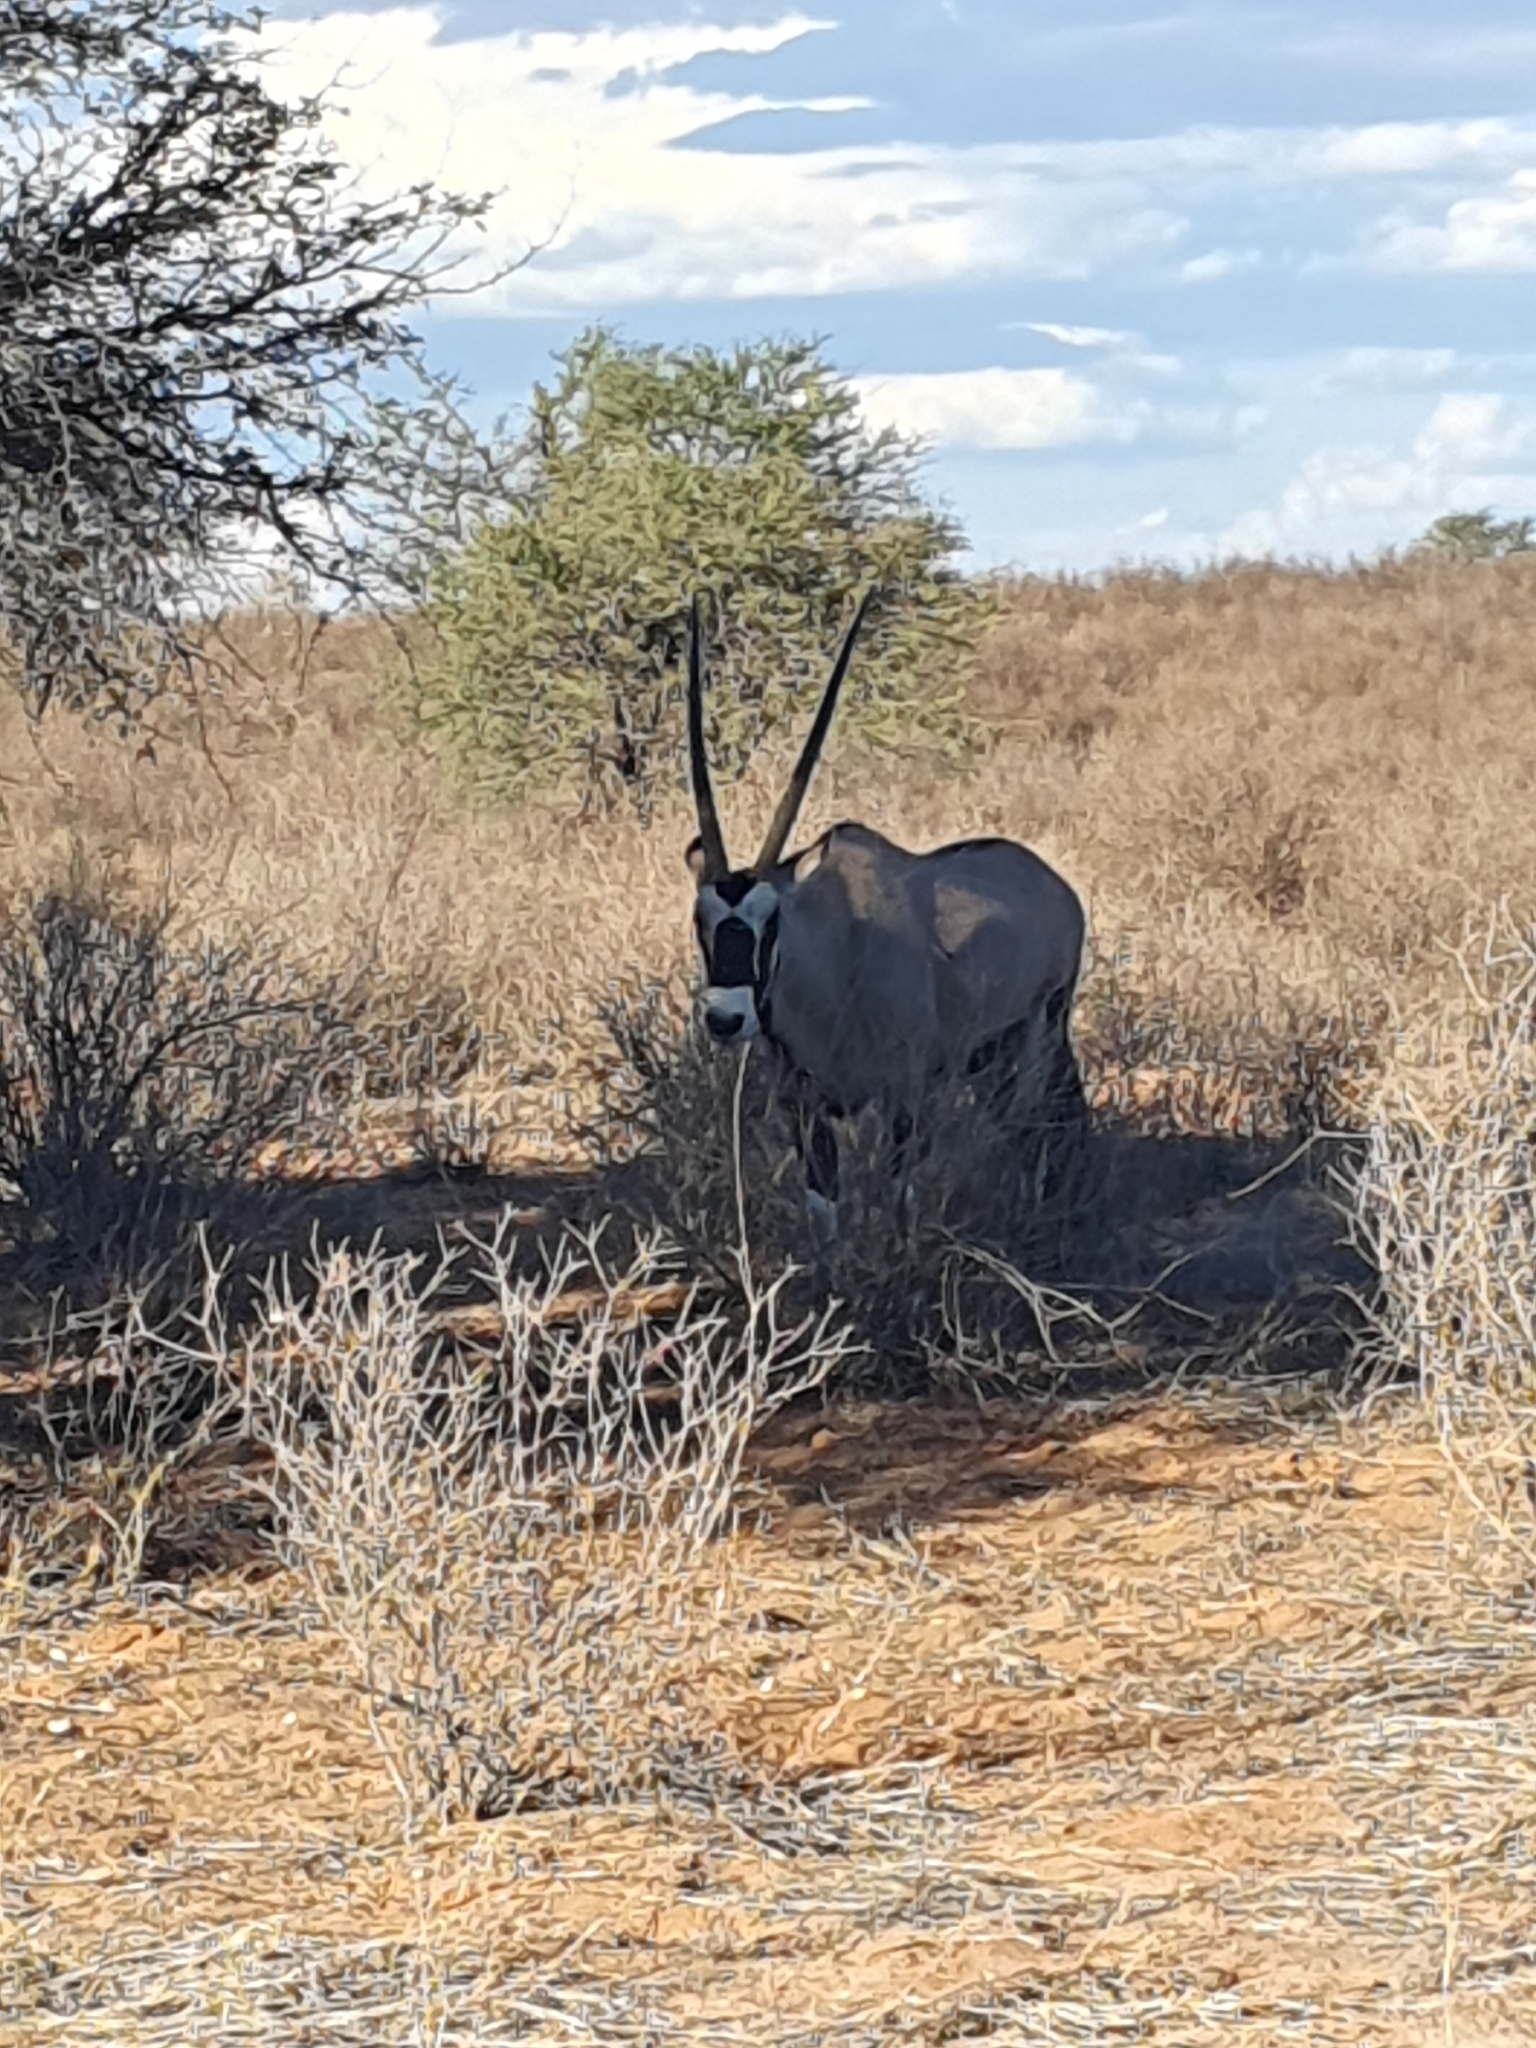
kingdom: Animalia
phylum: Chordata
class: Mammalia
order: Artiodactyla
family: Bovidae
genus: Oryx
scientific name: Oryx gazella
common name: Gemsbok
